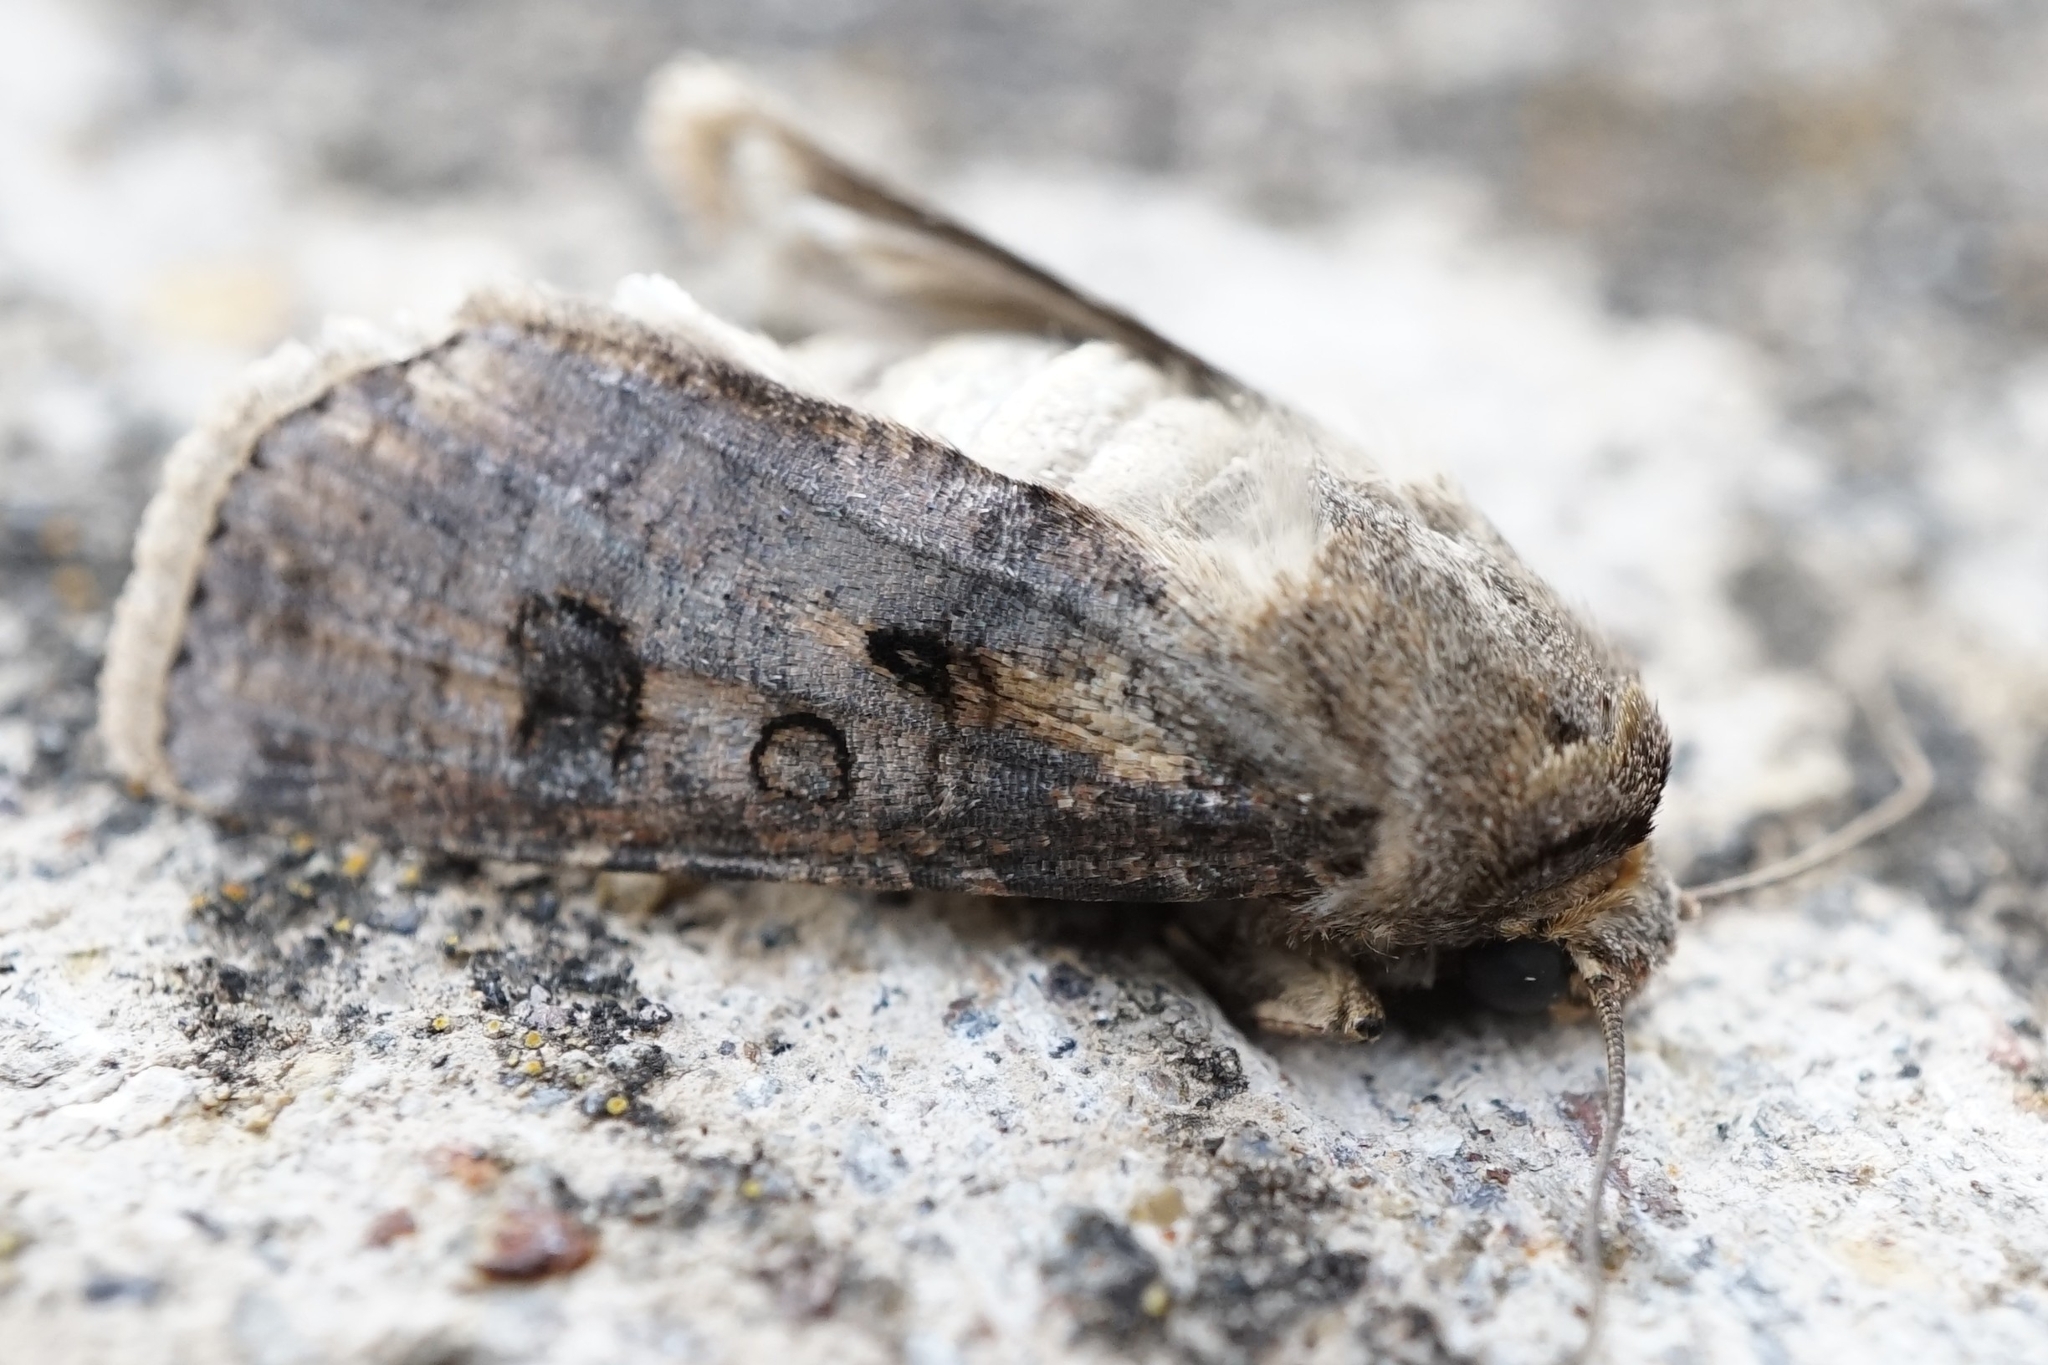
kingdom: Animalia
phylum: Arthropoda
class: Insecta
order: Lepidoptera
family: Noctuidae
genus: Agrotis
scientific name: Agrotis segetum
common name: Turnip moth
